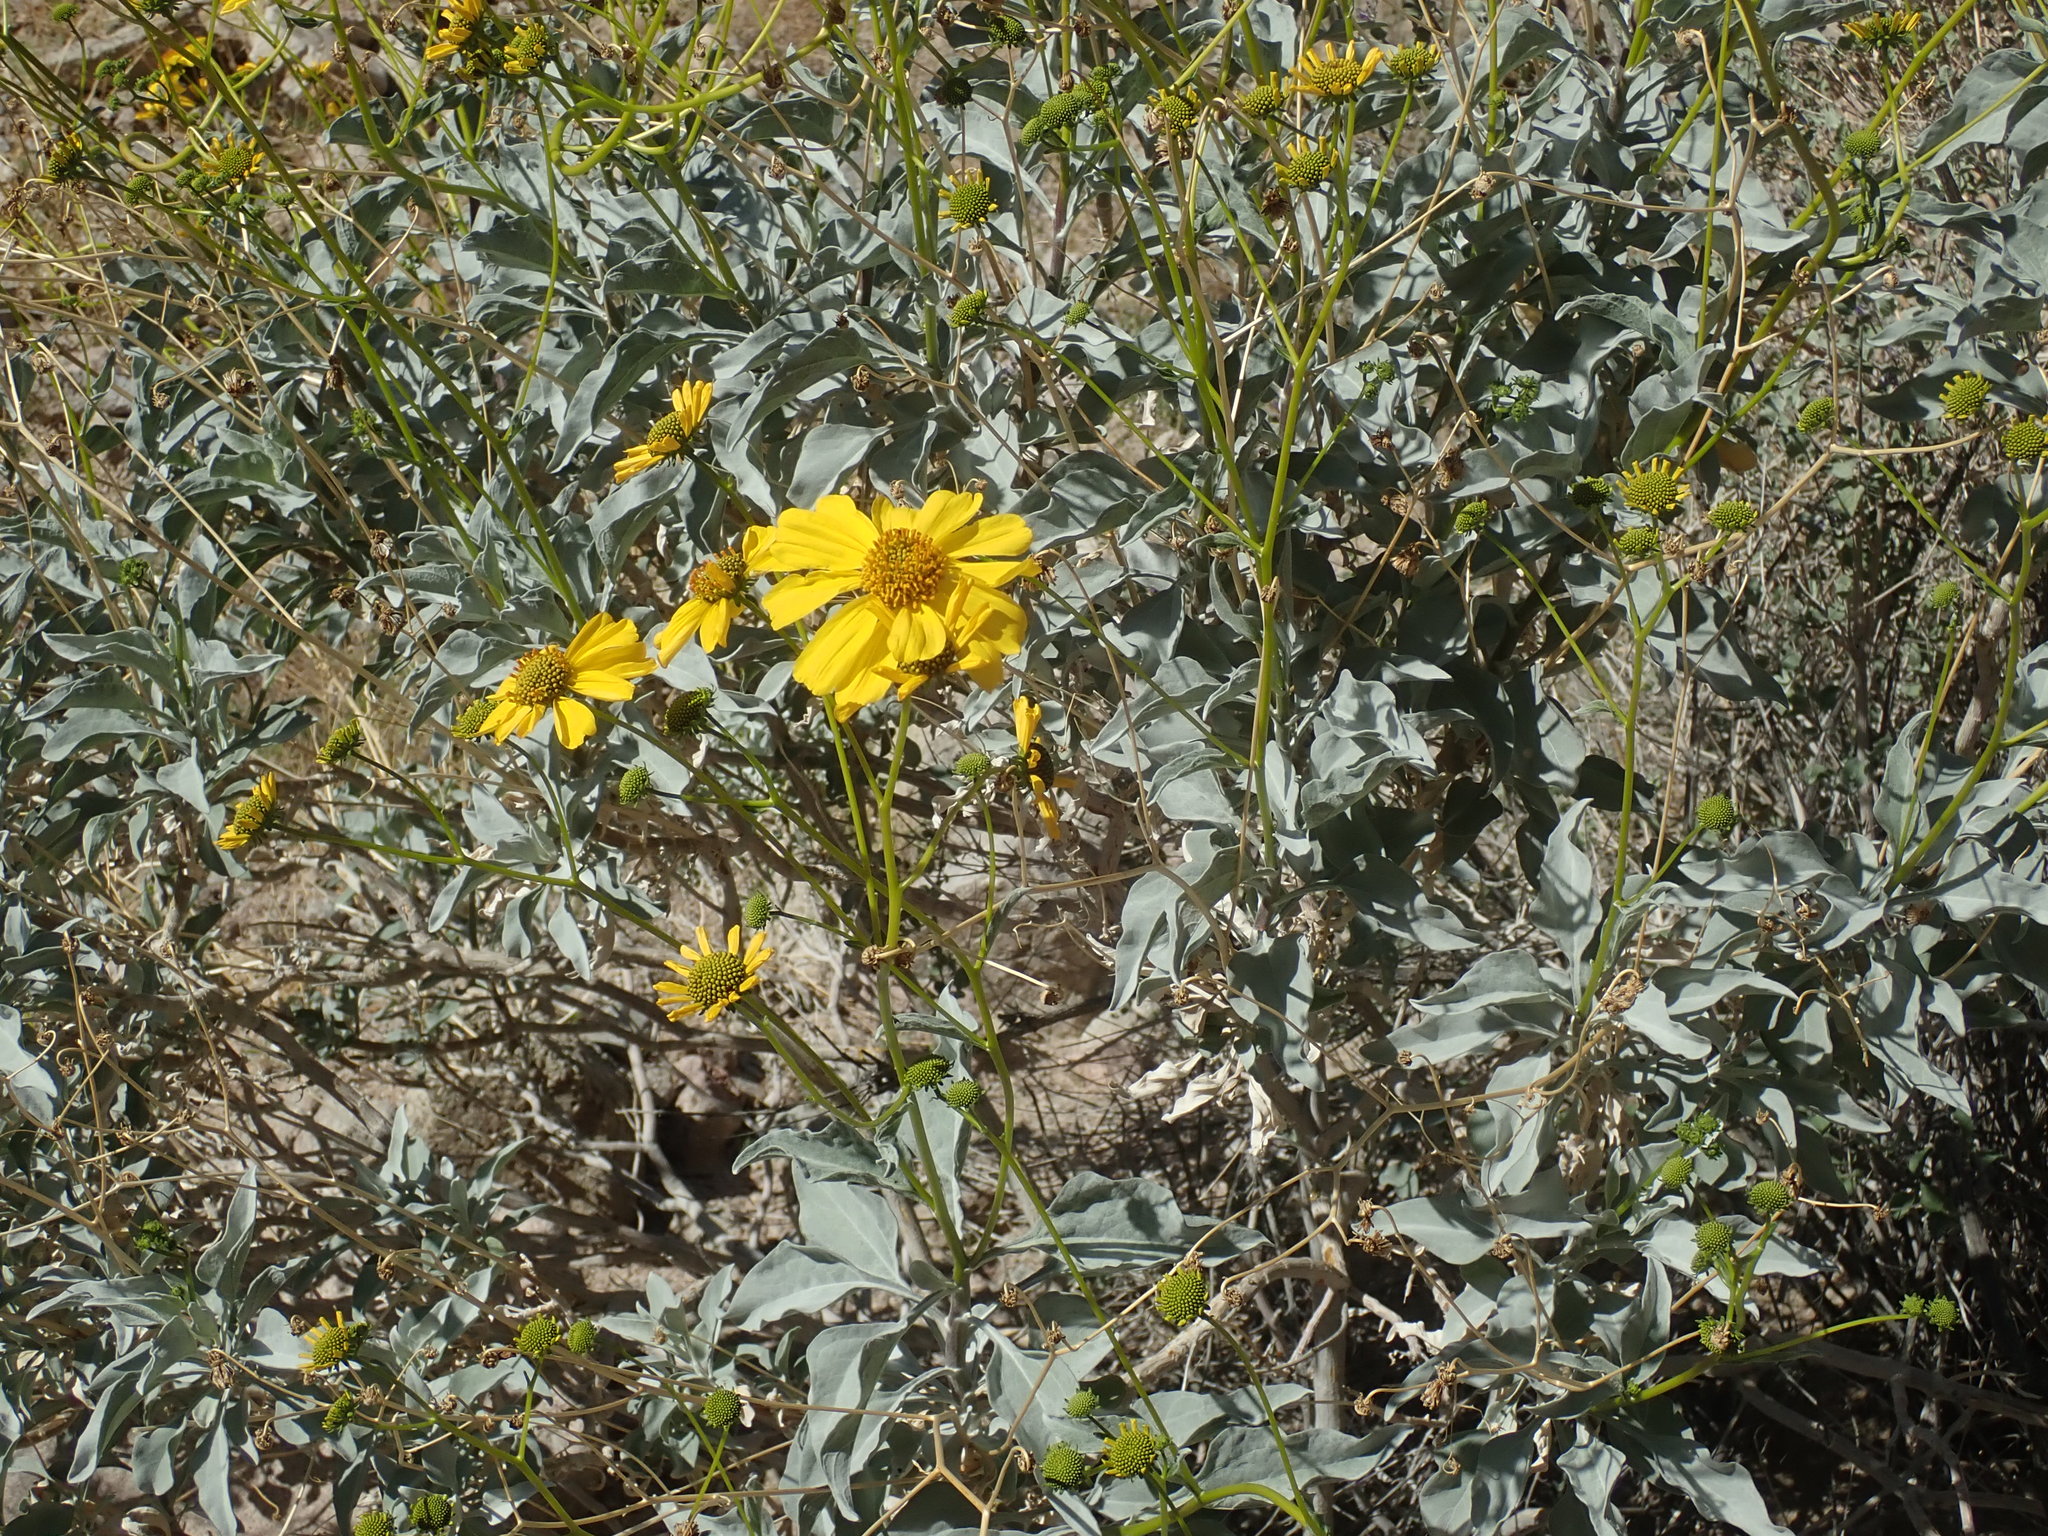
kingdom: Plantae
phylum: Tracheophyta
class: Magnoliopsida
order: Asterales
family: Asteraceae
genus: Encelia
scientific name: Encelia farinosa
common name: Brittlebush
